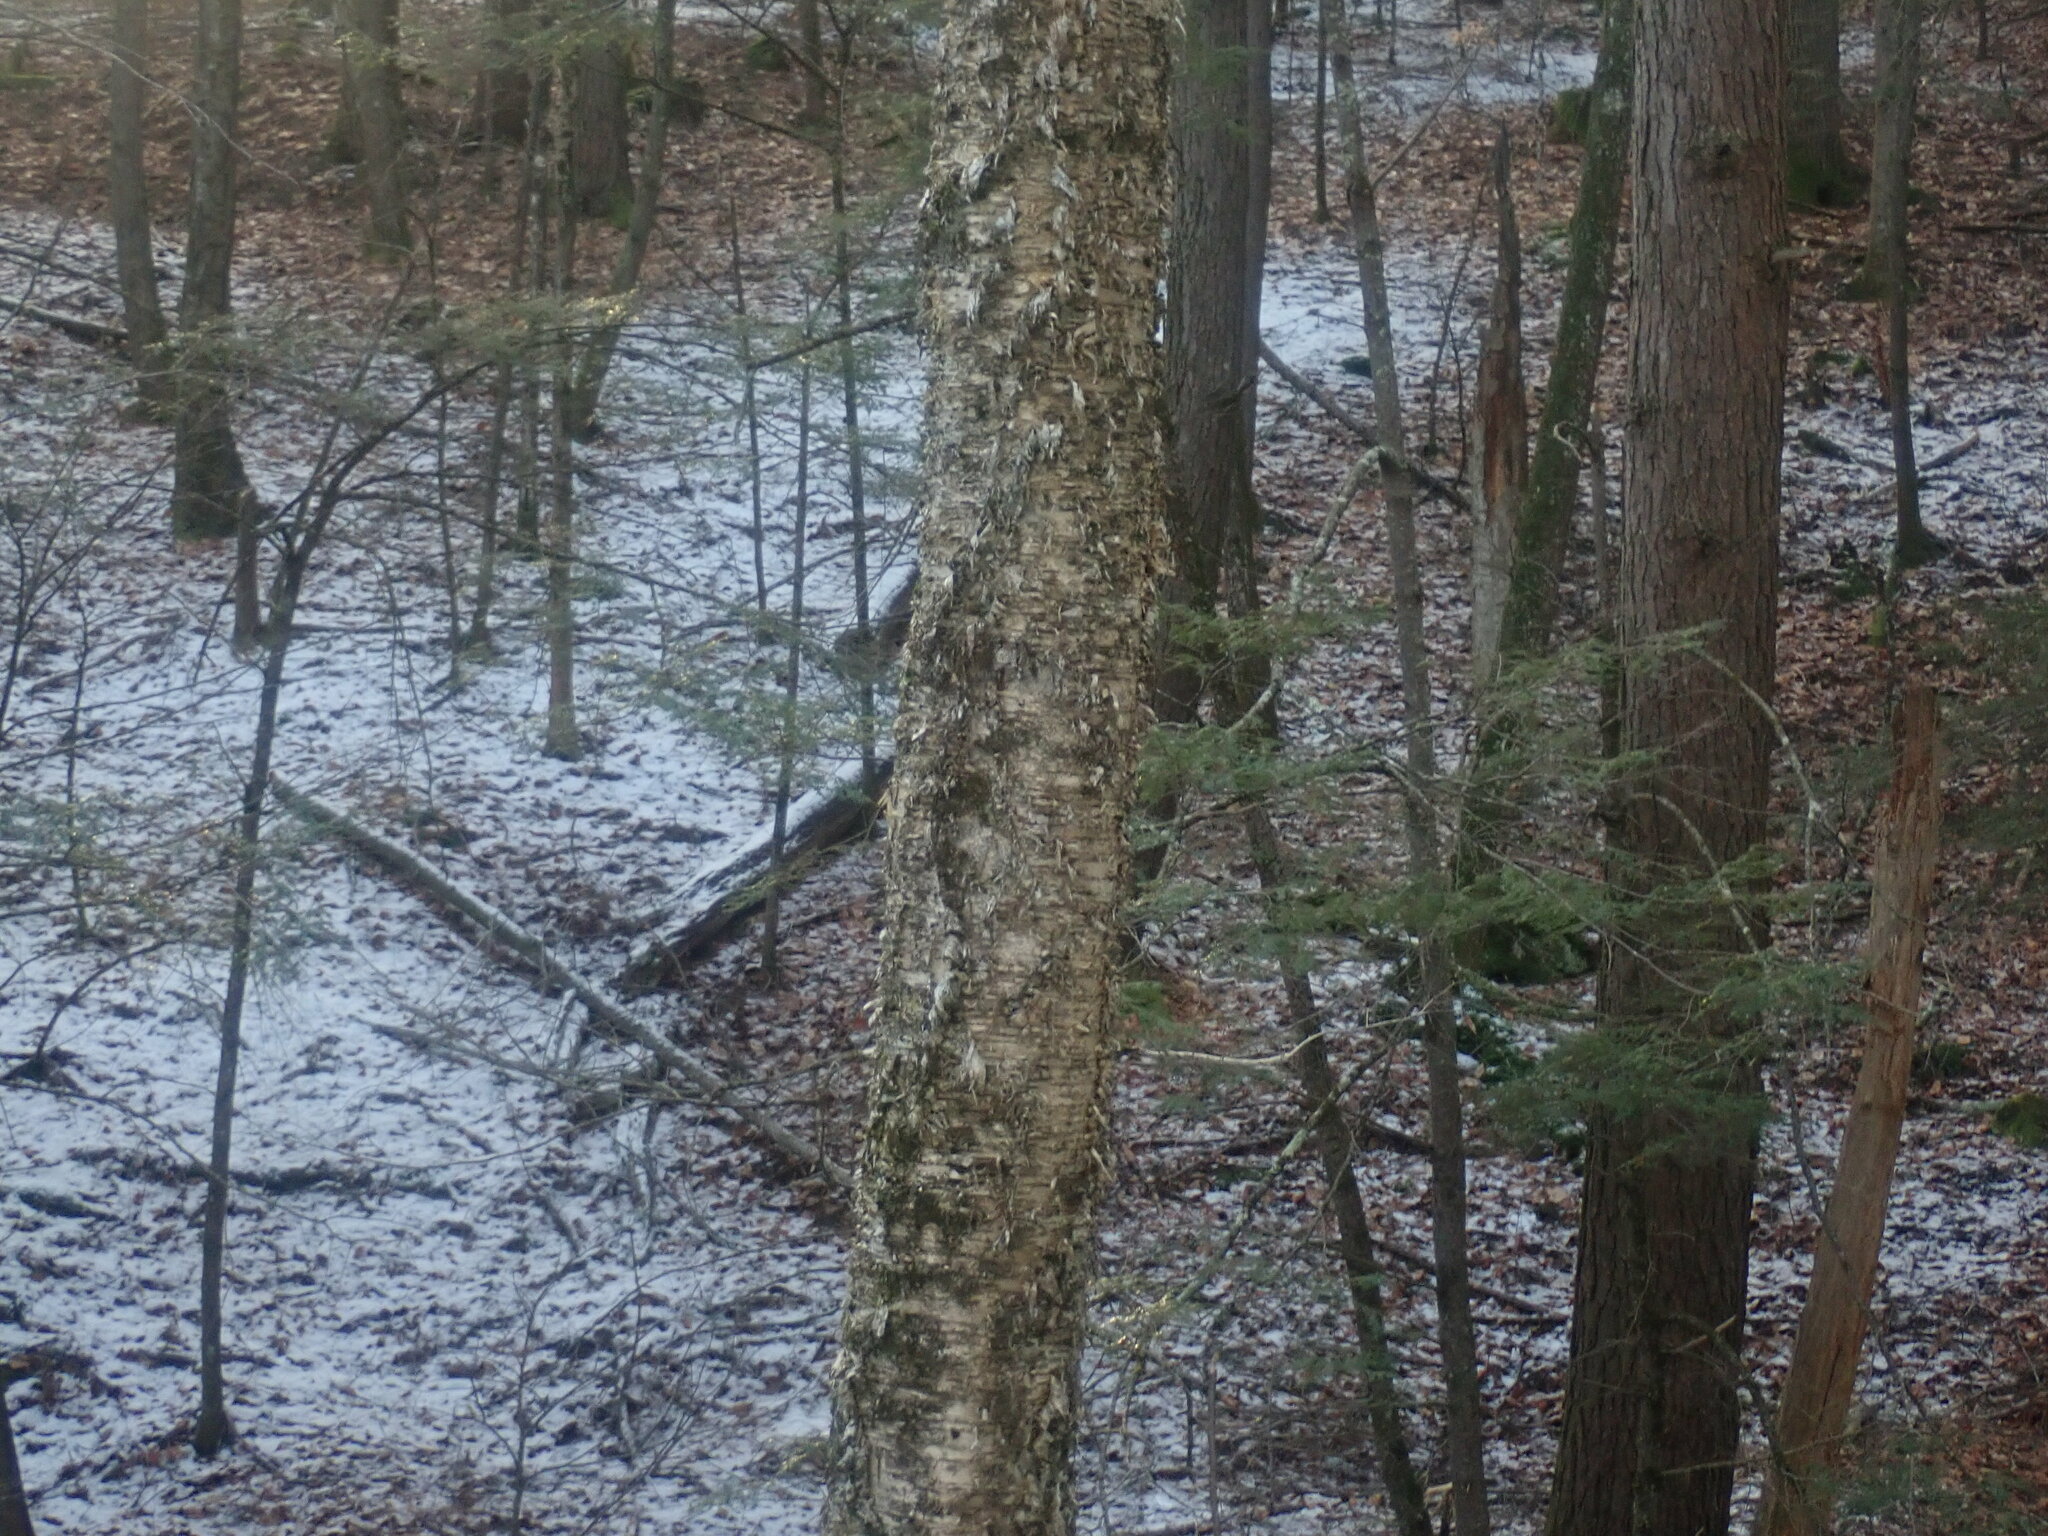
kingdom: Plantae
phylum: Tracheophyta
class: Magnoliopsida
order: Fagales
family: Betulaceae
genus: Betula
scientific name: Betula alleghaniensis
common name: Yellow birch
